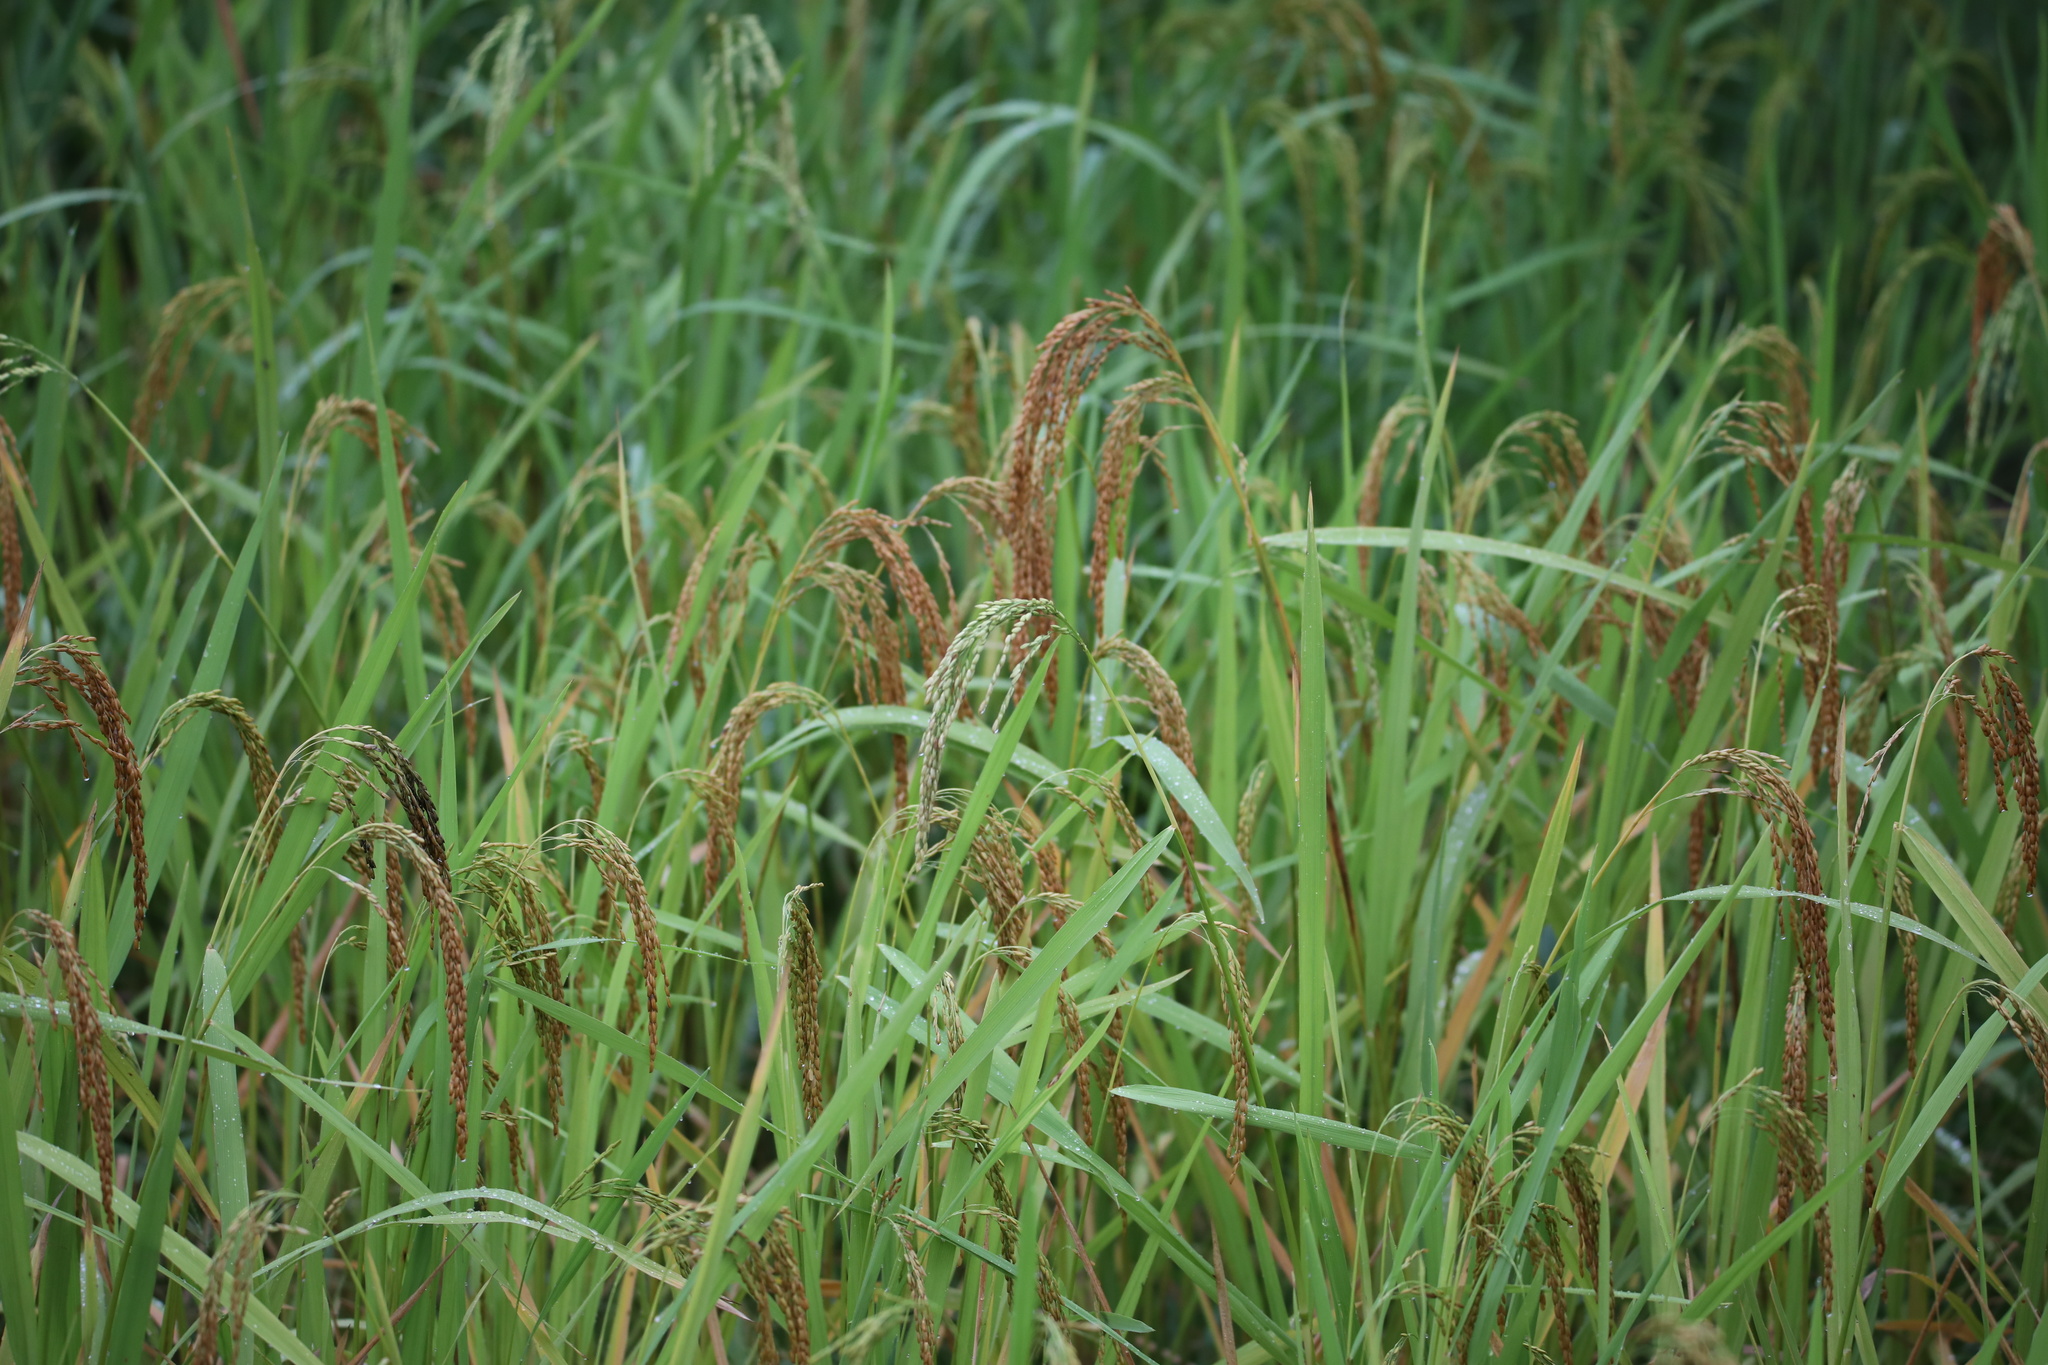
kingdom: Plantae
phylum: Tracheophyta
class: Liliopsida
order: Poales
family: Poaceae
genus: Oryza
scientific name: Oryza sativa
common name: Rice
